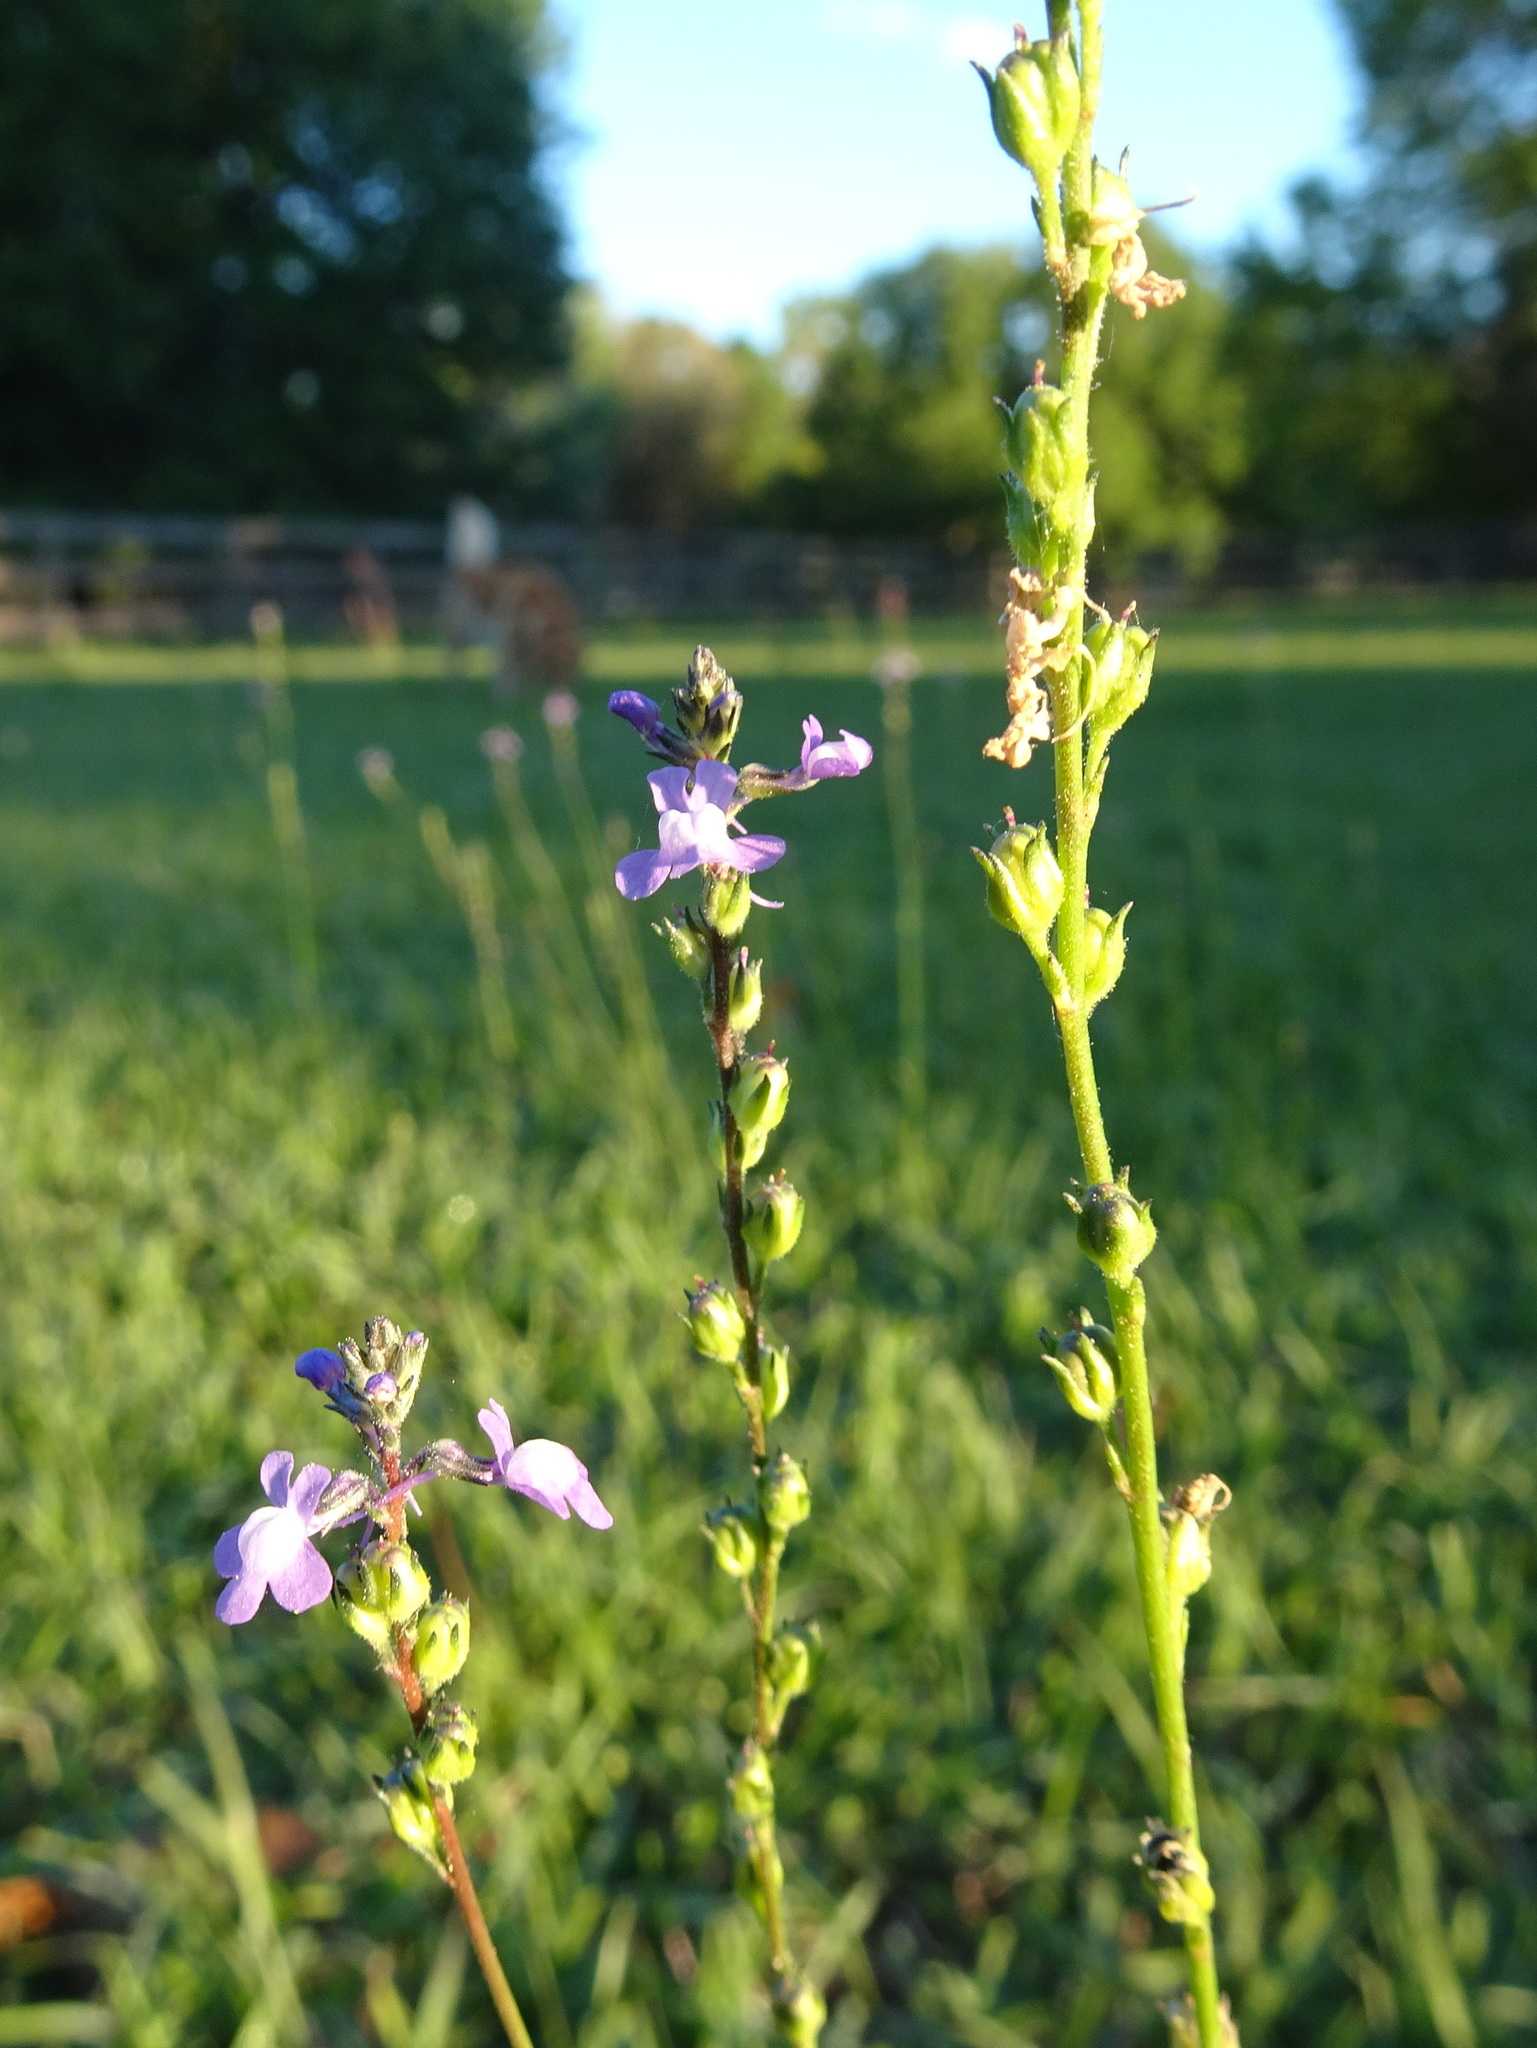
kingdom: Plantae
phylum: Tracheophyta
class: Magnoliopsida
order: Lamiales
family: Plantaginaceae
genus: Nuttallanthus
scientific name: Nuttallanthus canadensis
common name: Blue toadflax
